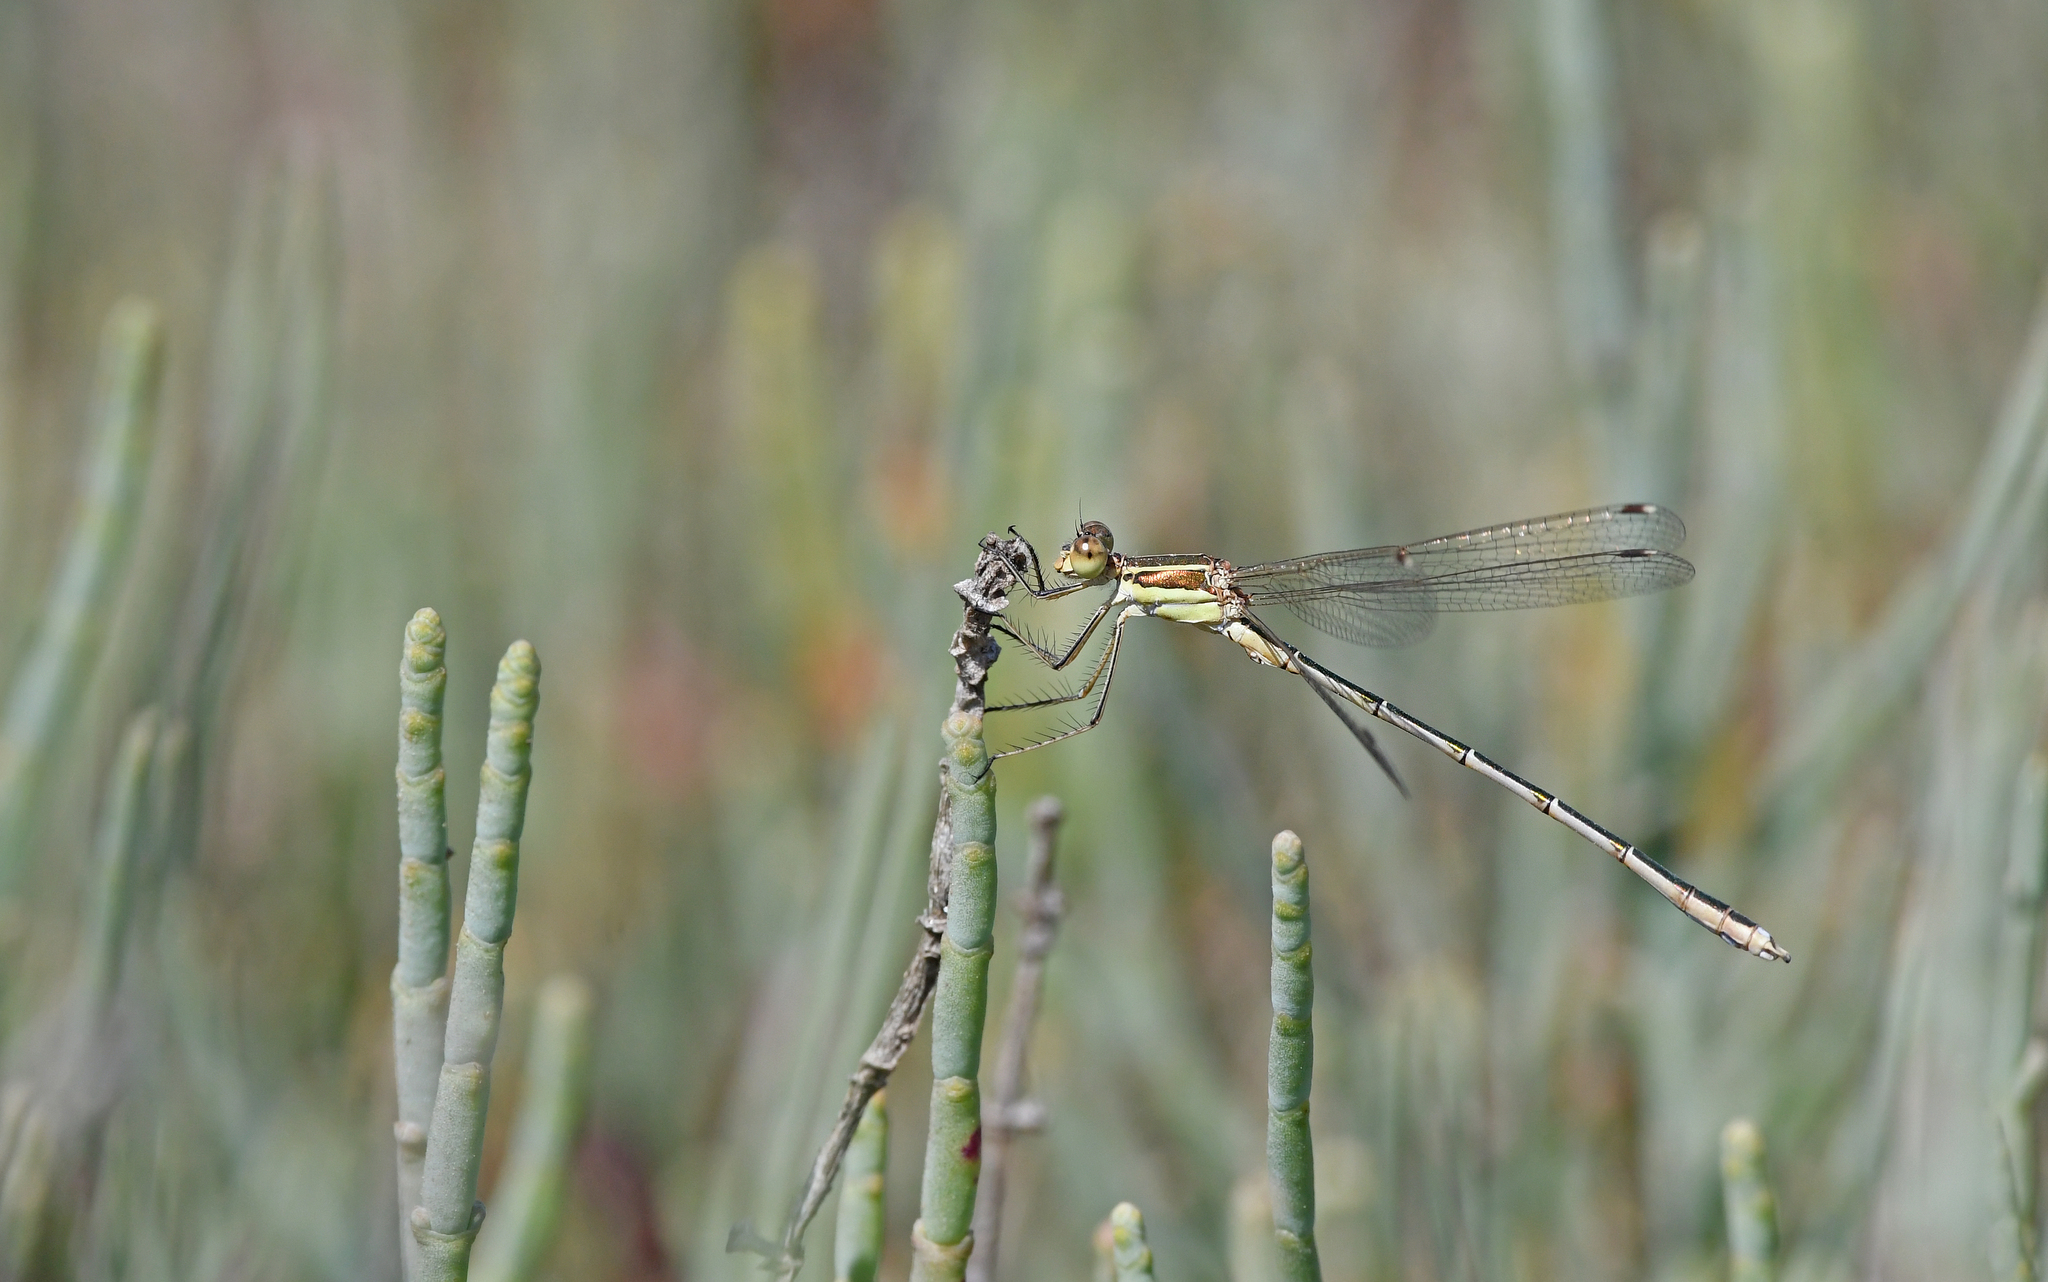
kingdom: Animalia
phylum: Arthropoda
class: Insecta
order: Odonata
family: Lestidae
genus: Lestes
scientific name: Lestes barbarus
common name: Migrant spreadwing
